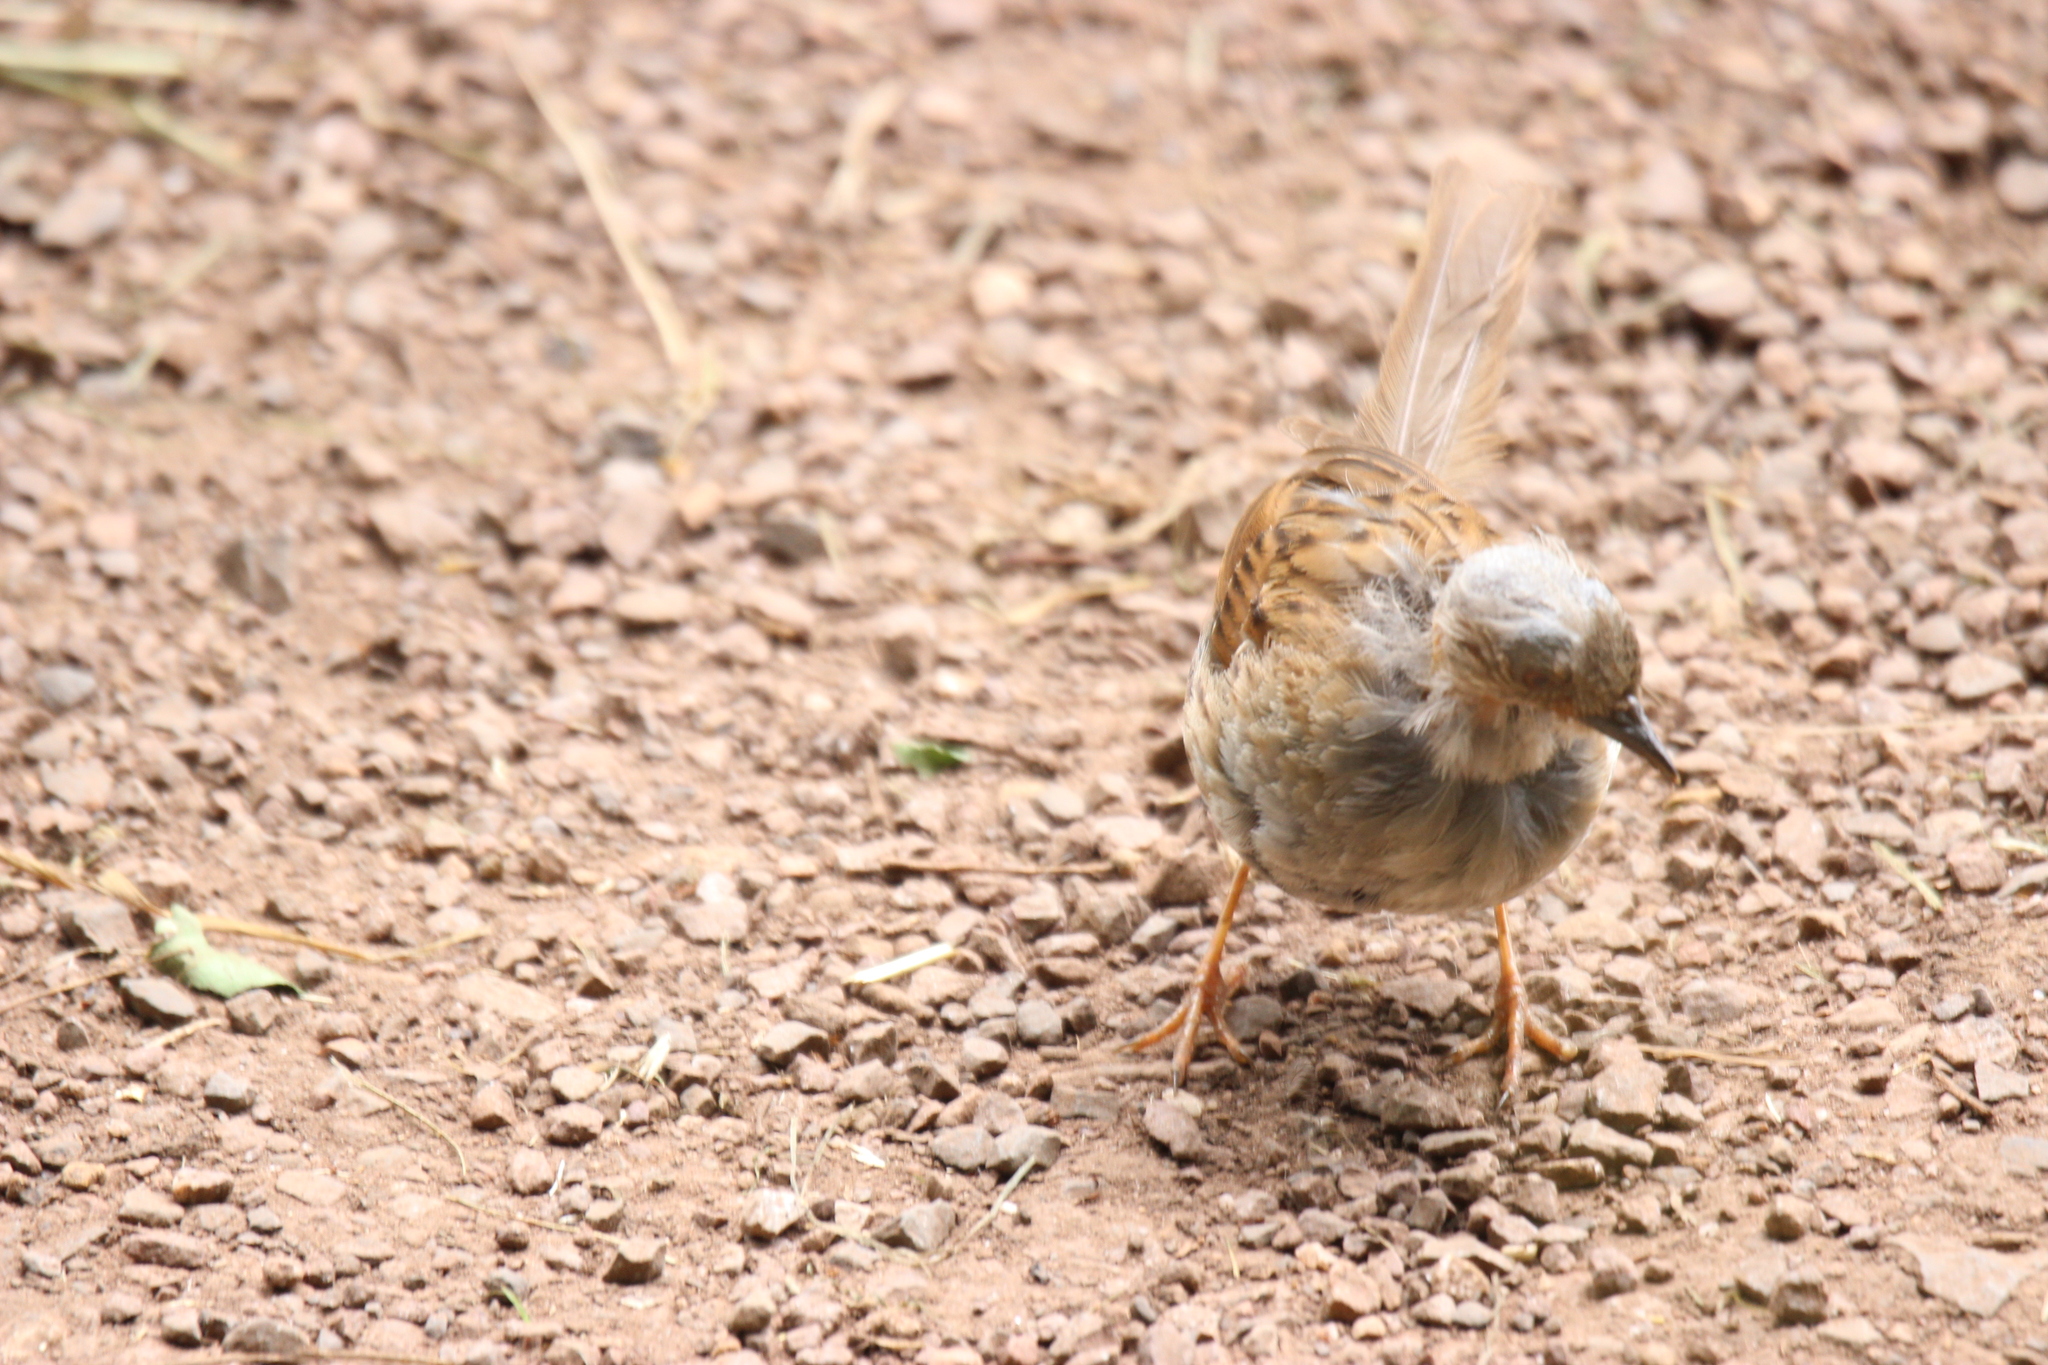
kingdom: Animalia
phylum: Chordata
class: Aves
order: Passeriformes
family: Prunellidae
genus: Prunella
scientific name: Prunella modularis
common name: Dunnock
